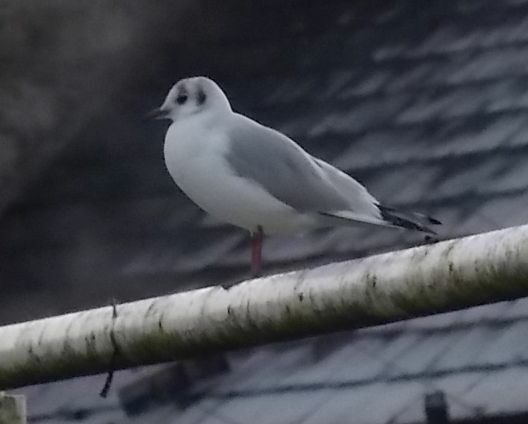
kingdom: Animalia
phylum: Chordata
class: Aves
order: Charadriiformes
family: Laridae
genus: Chroicocephalus
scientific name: Chroicocephalus ridibundus
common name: Black-headed gull
